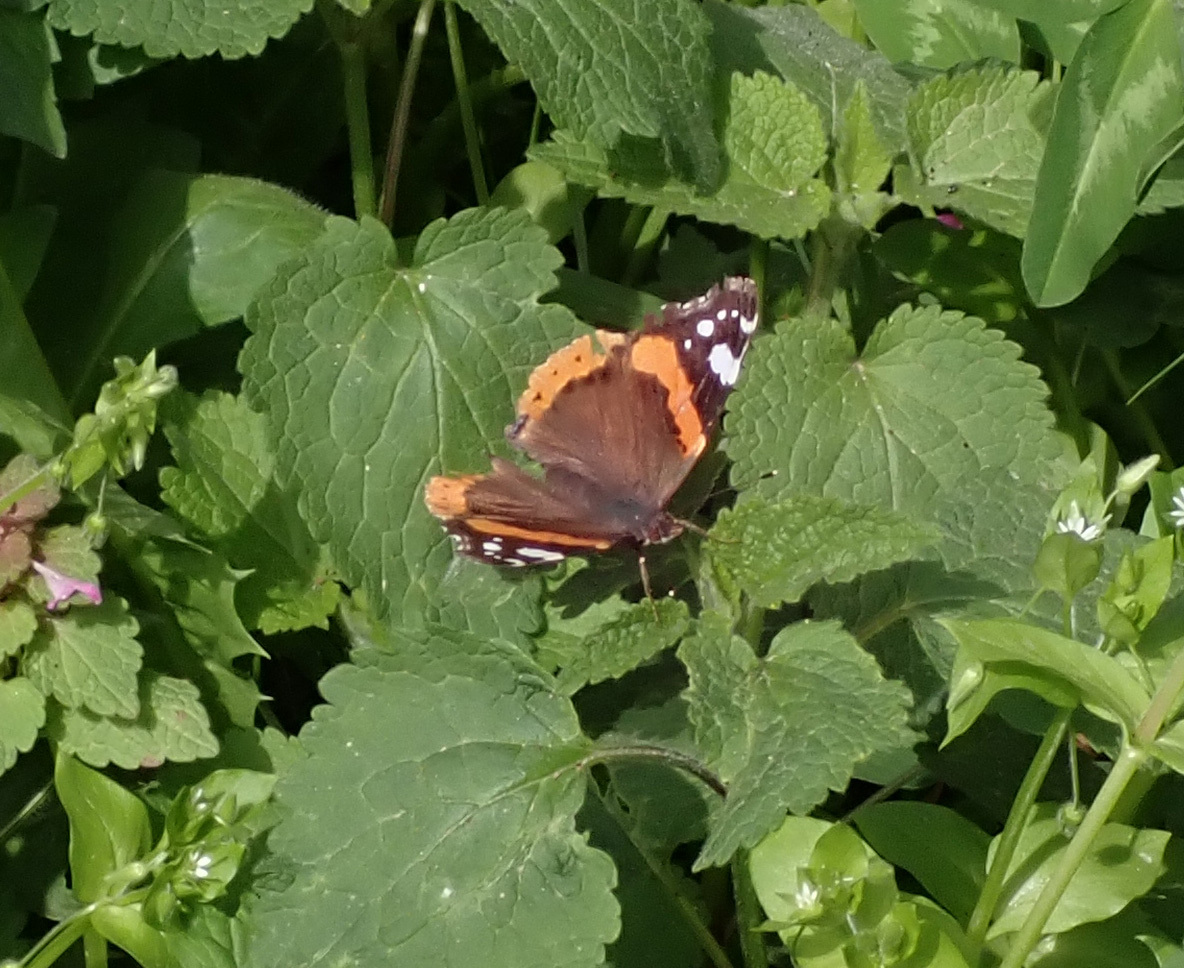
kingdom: Animalia
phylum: Arthropoda
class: Insecta
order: Lepidoptera
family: Nymphalidae
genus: Vanessa
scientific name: Vanessa atalanta
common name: Red admiral
